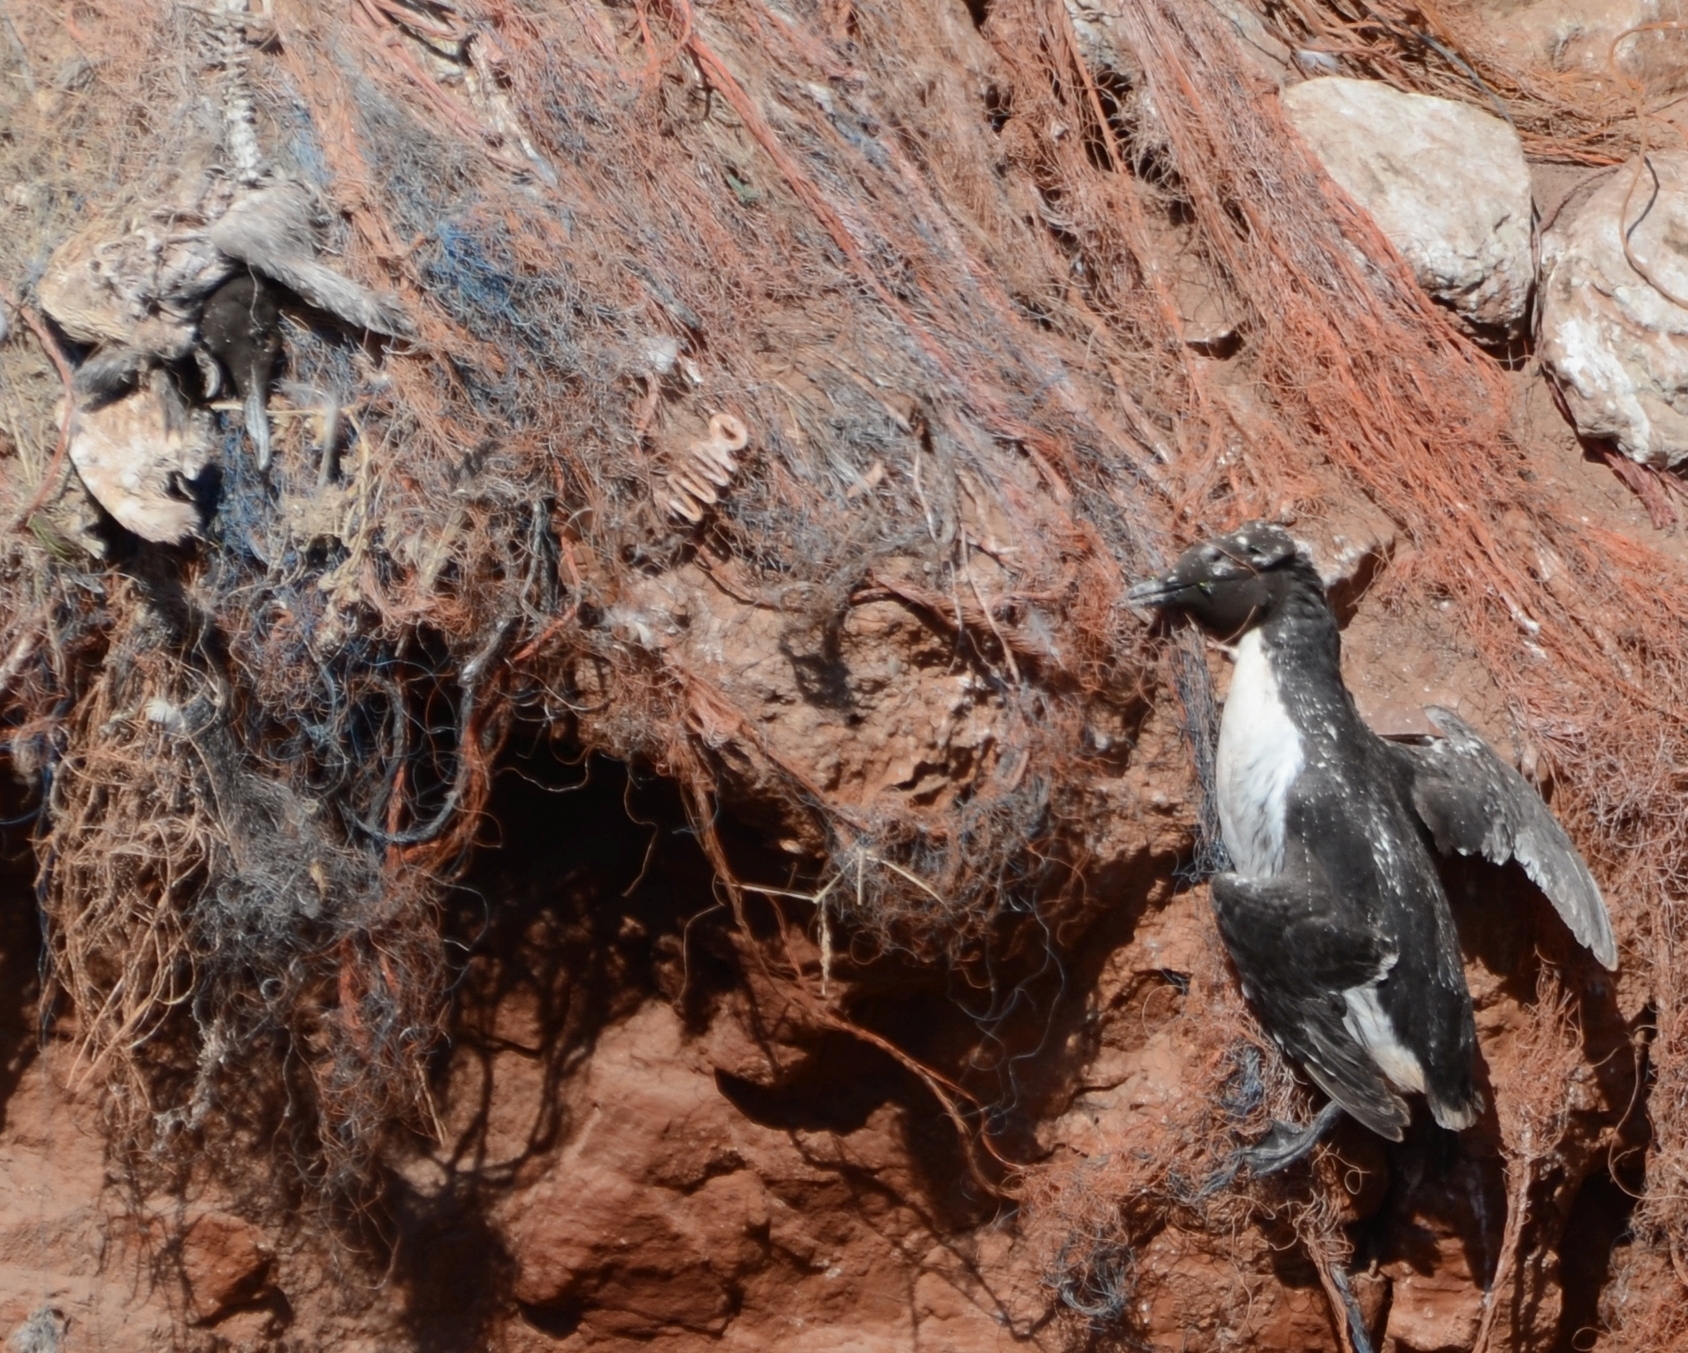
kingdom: Animalia
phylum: Chordata
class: Aves
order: Charadriiformes
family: Alcidae
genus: Uria
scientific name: Uria aalge
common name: Common murre
